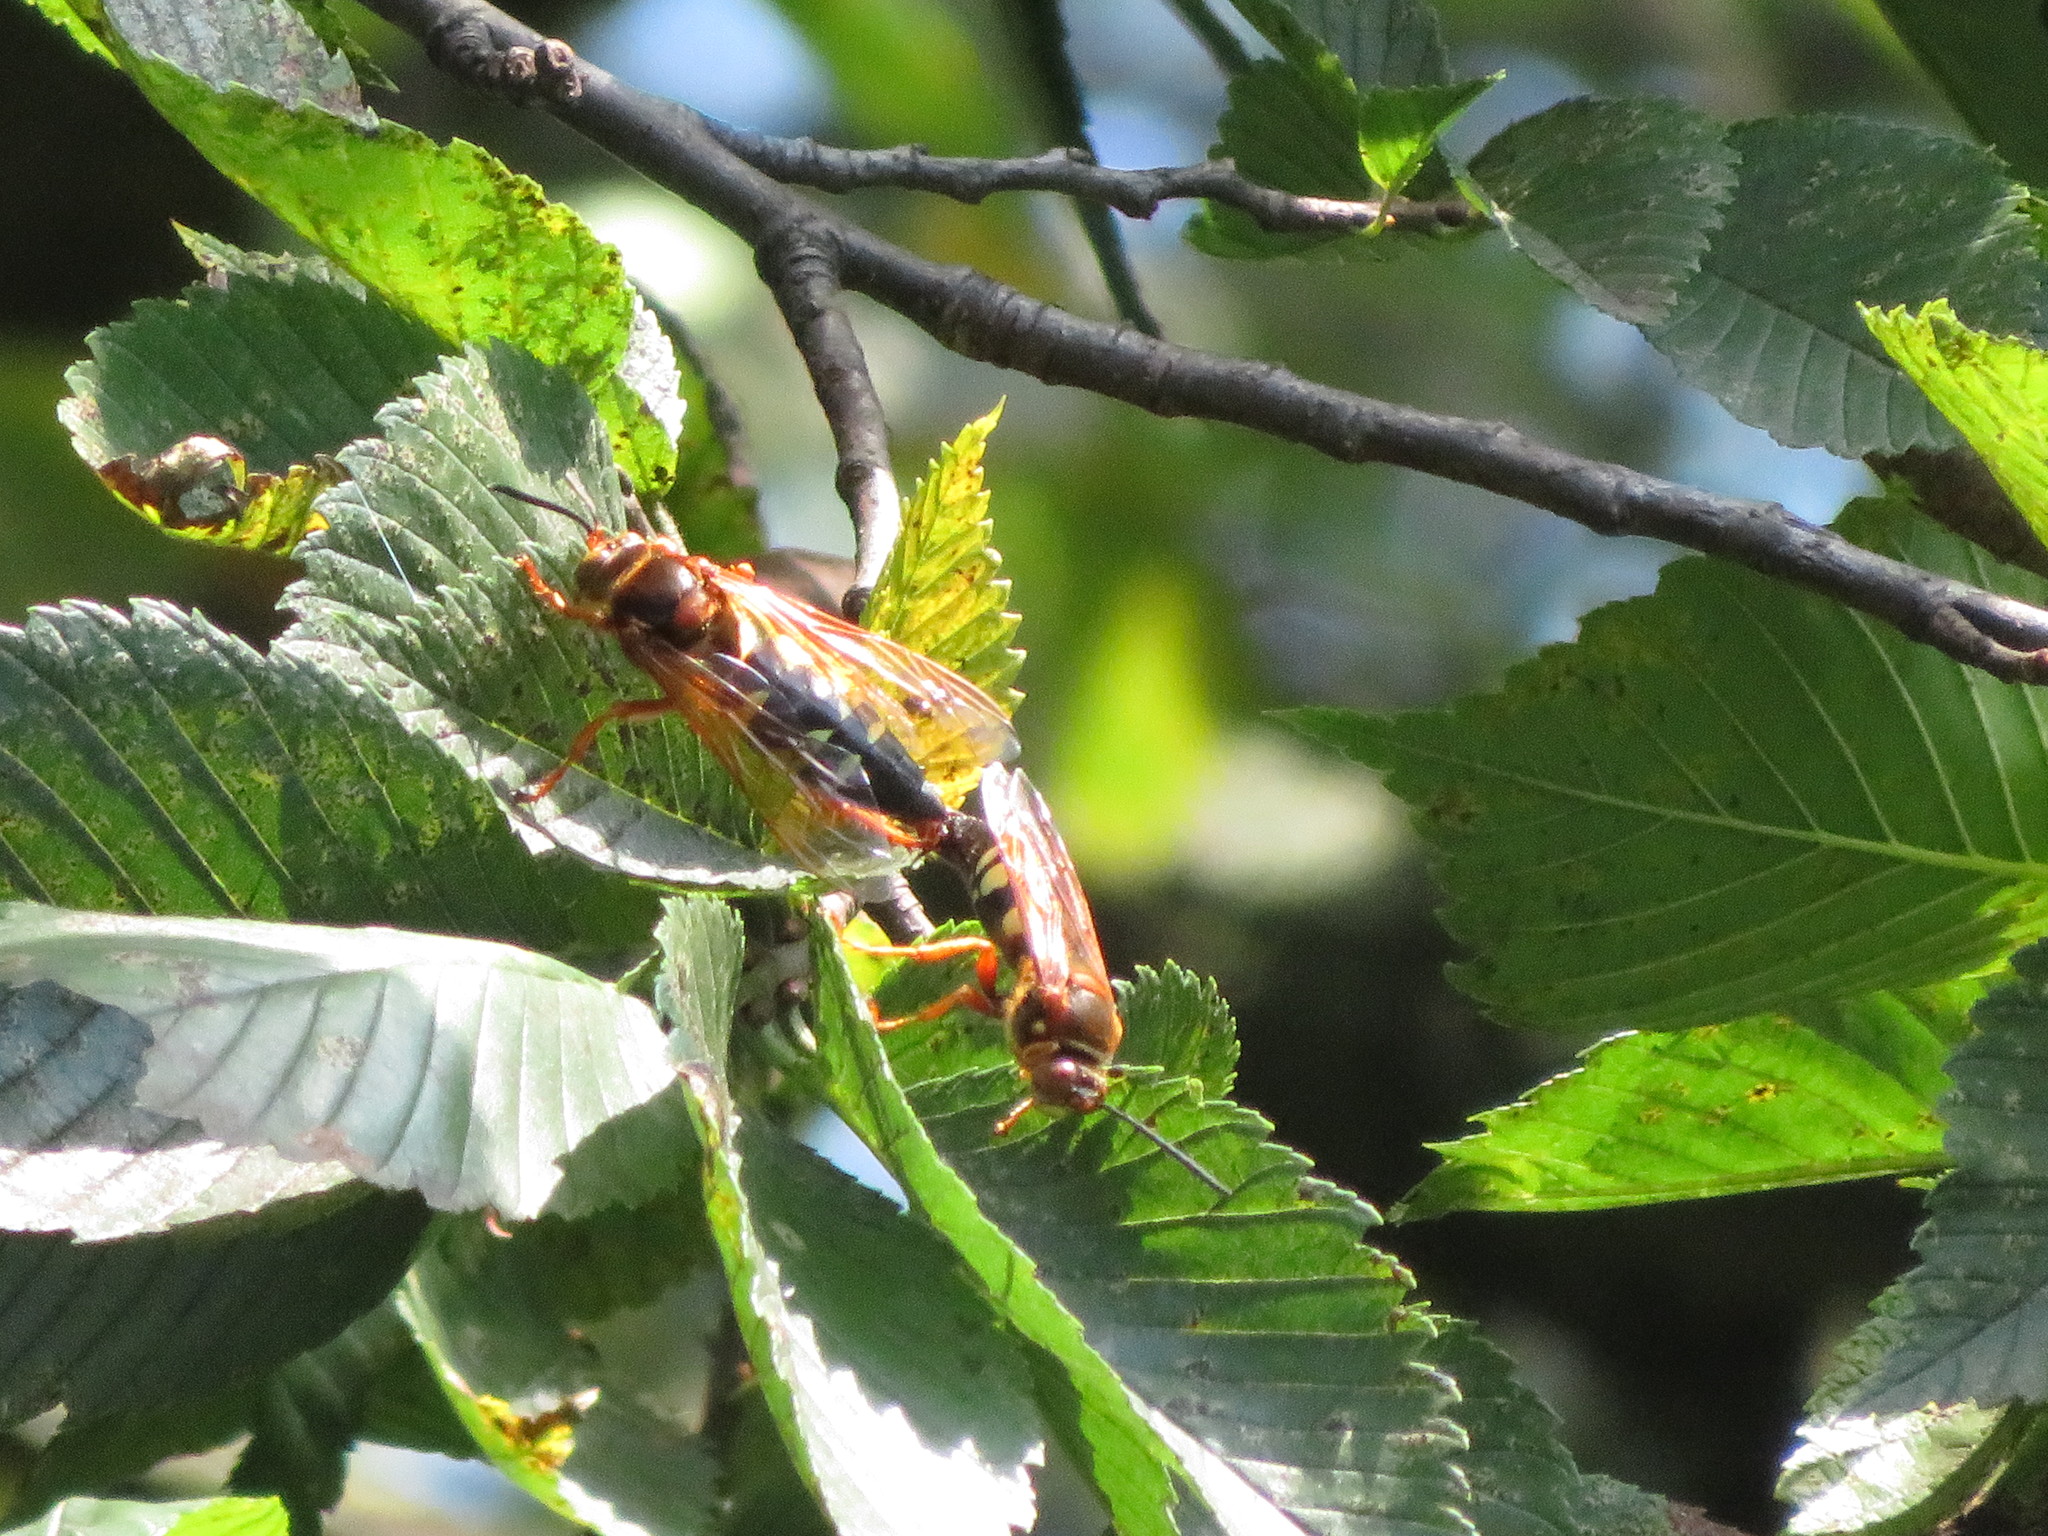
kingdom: Animalia
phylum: Arthropoda
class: Insecta
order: Hymenoptera
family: Crabronidae
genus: Sphecius
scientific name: Sphecius speciosus
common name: Cicada killer
